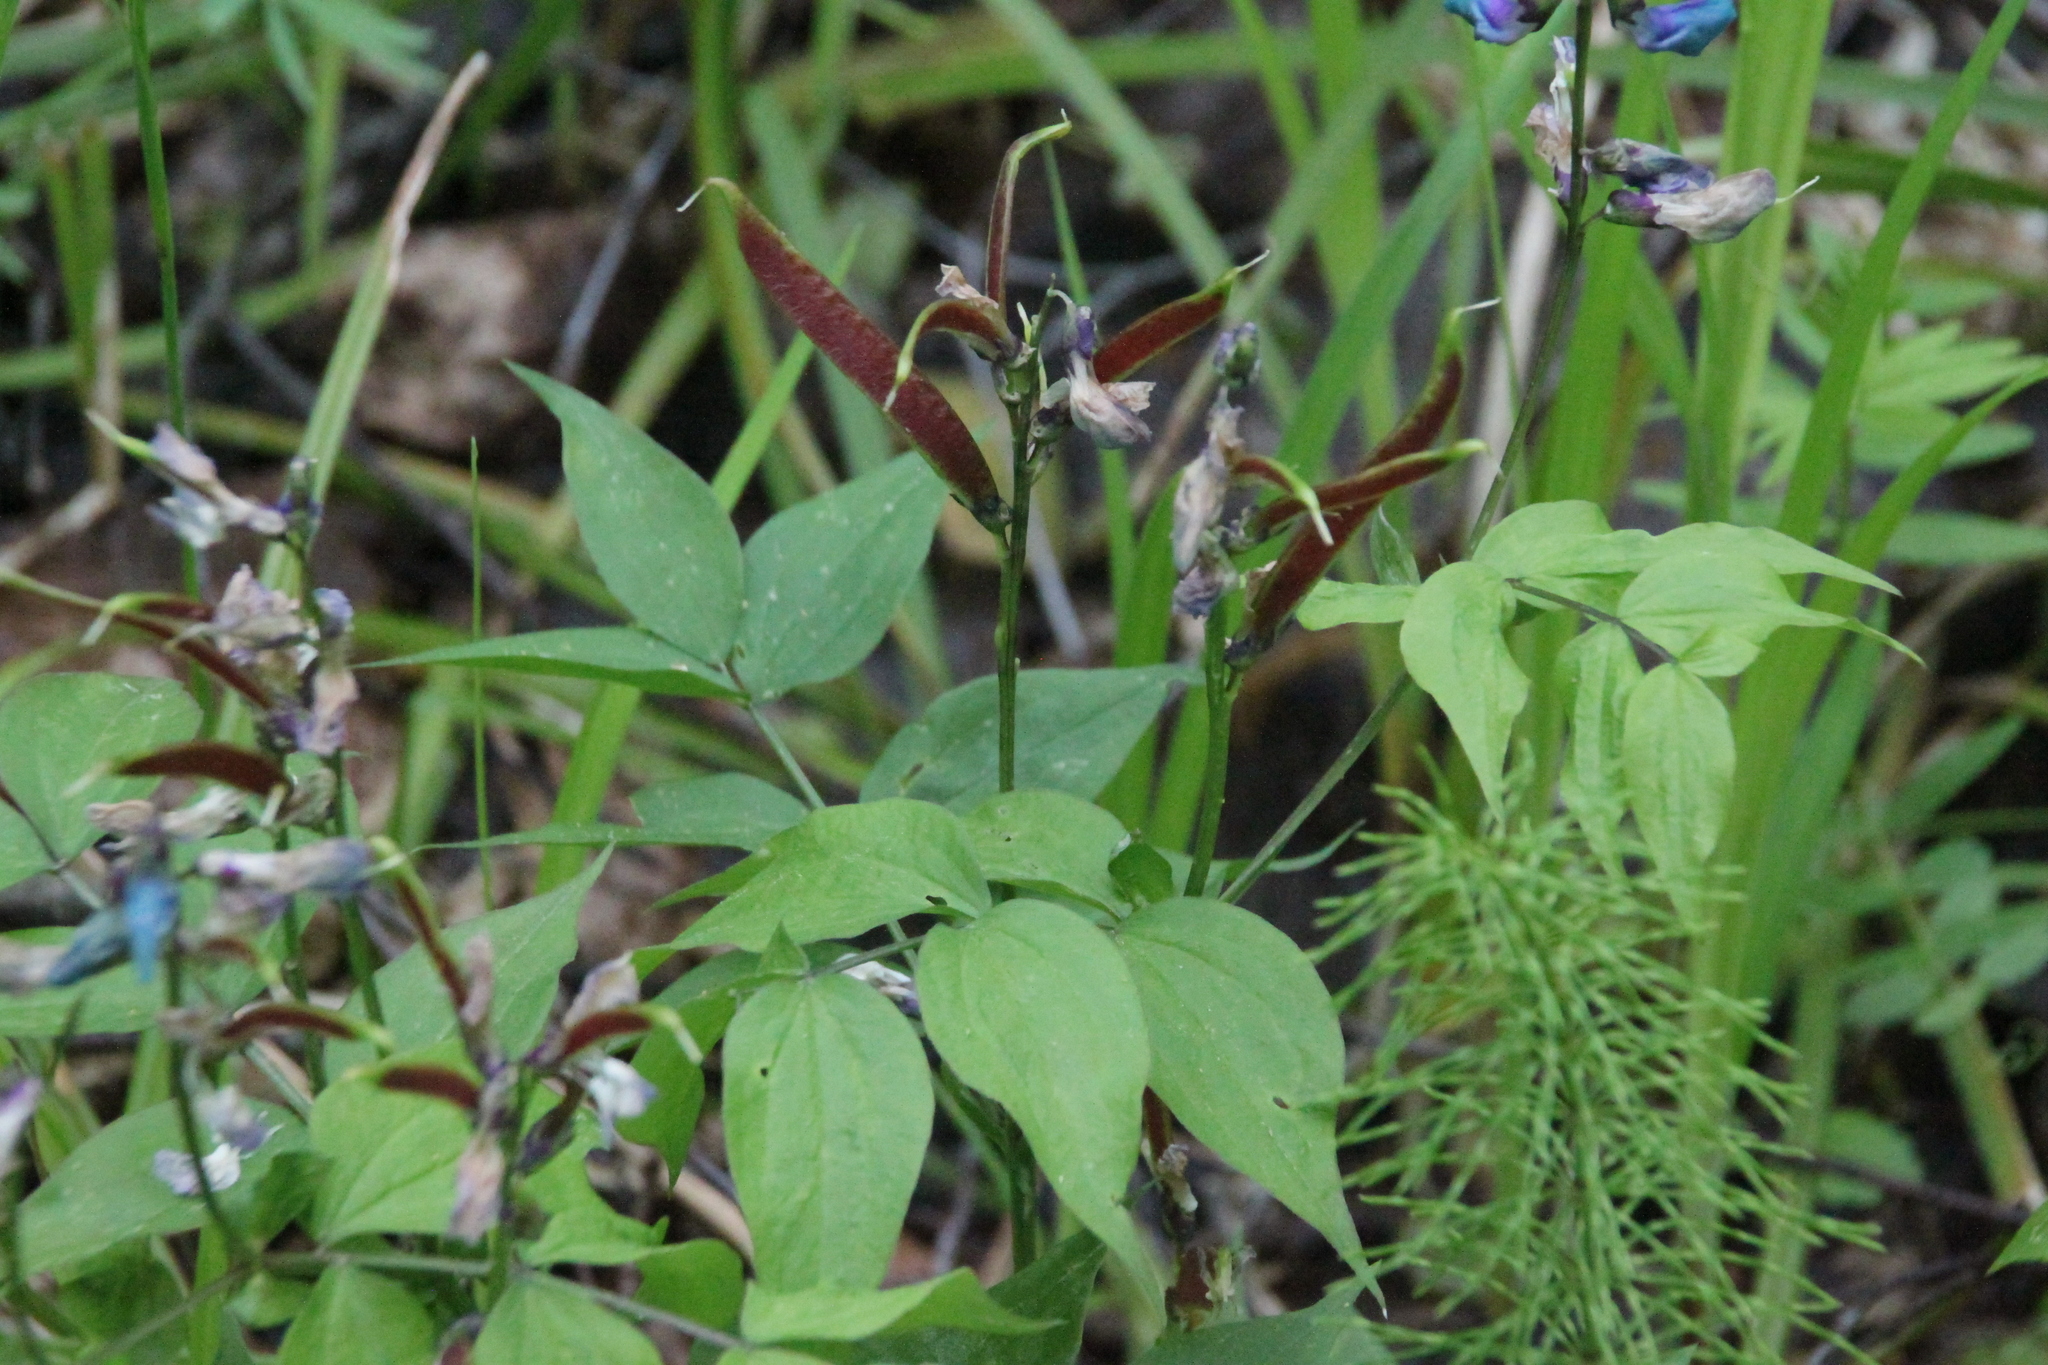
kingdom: Plantae
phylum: Tracheophyta
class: Magnoliopsida
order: Fabales
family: Fabaceae
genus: Lathyrus
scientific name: Lathyrus vernus
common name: Spring pea
